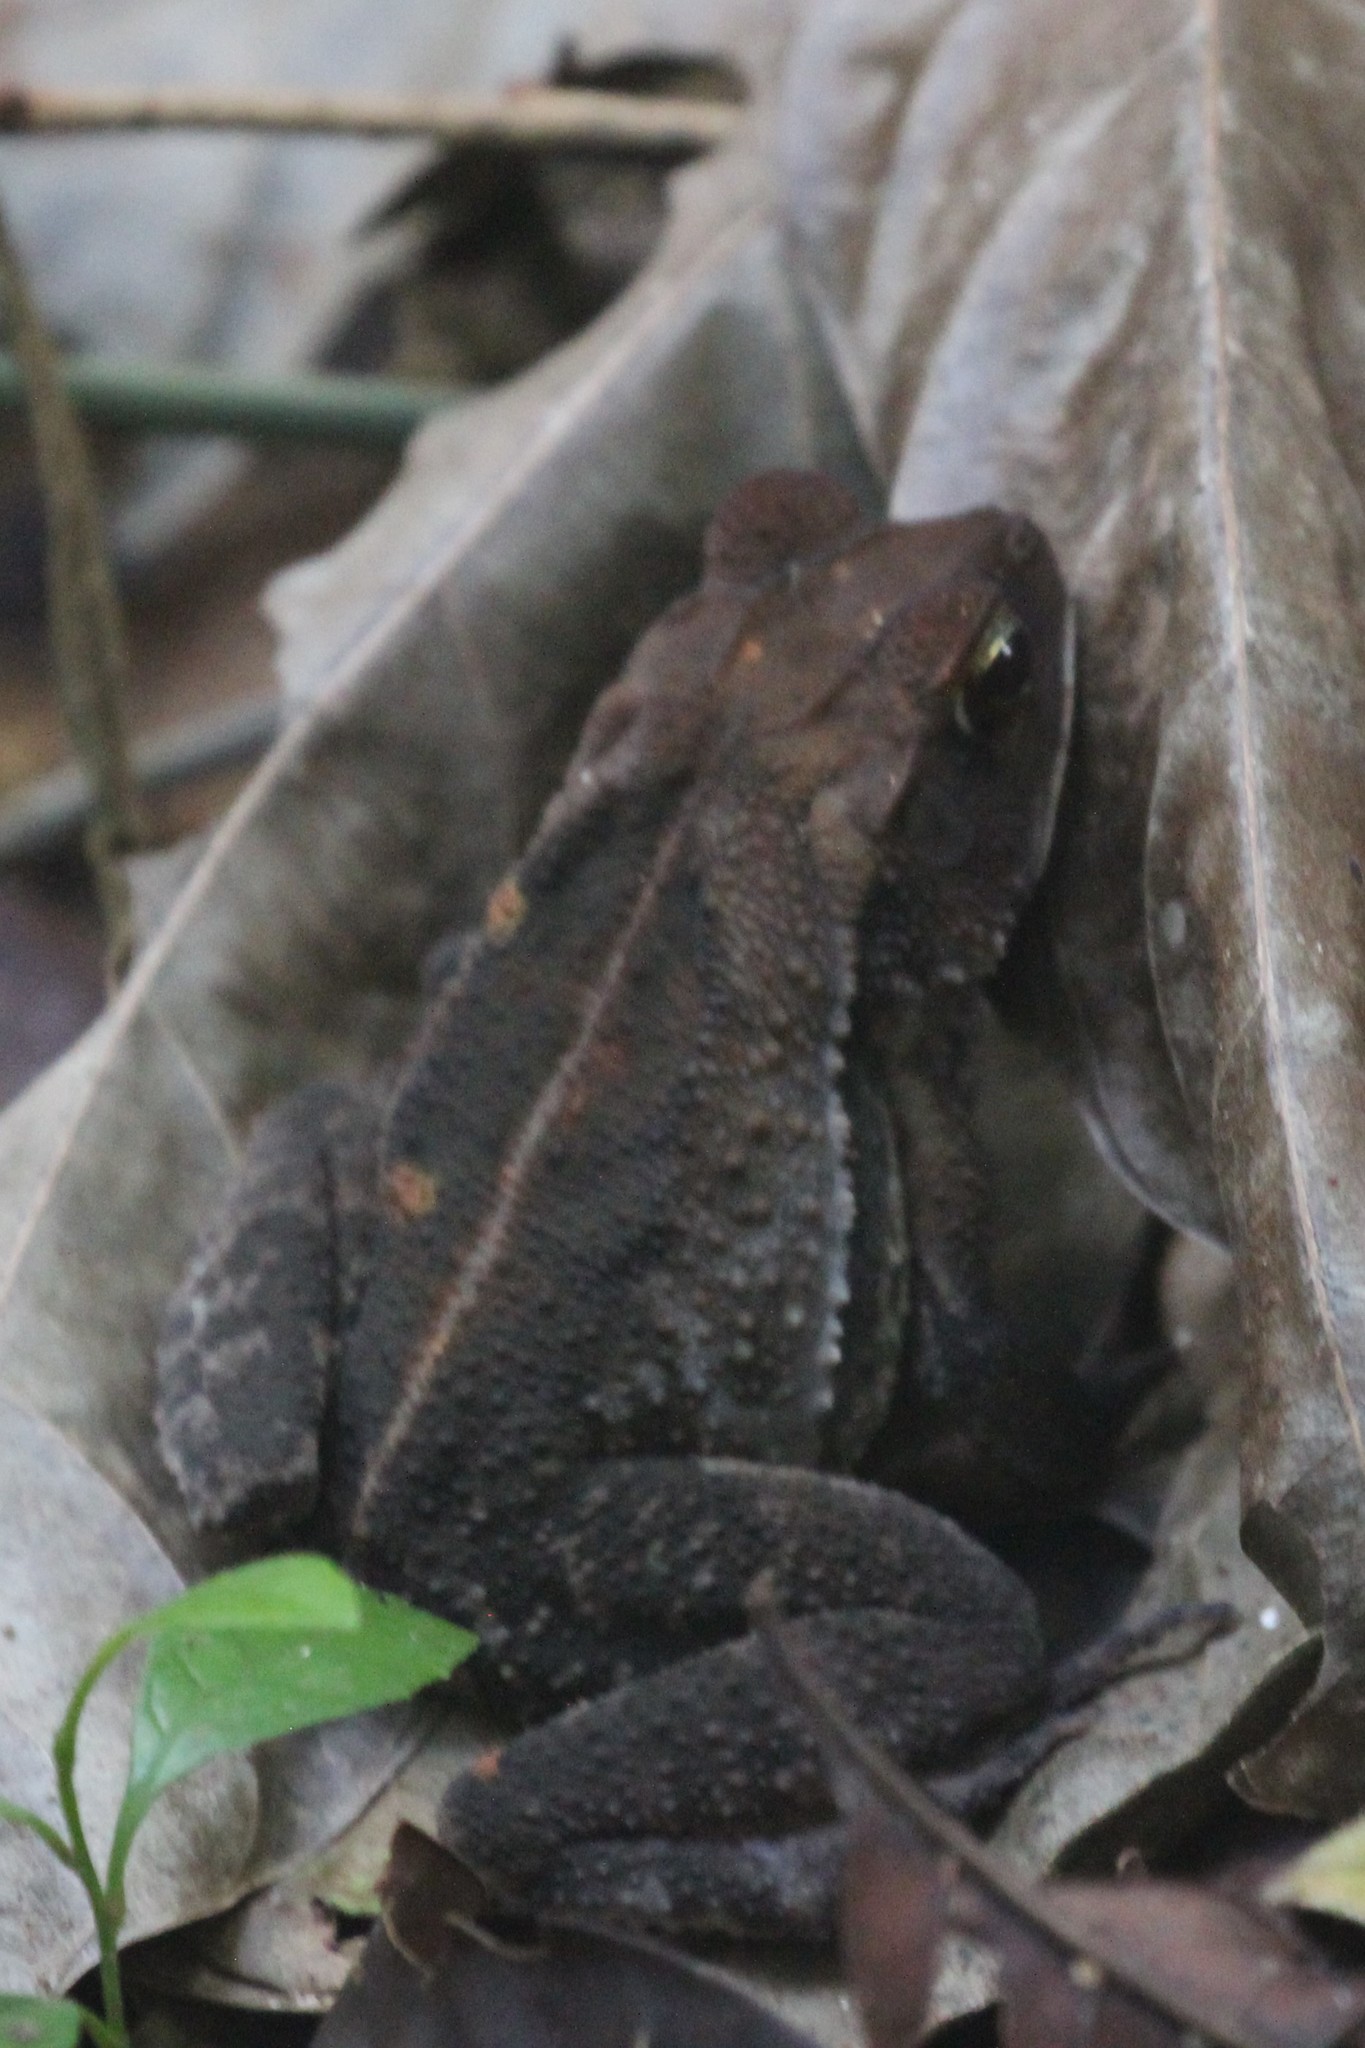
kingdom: Animalia
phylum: Chordata
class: Amphibia
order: Anura
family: Bufonidae
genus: Incilius
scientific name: Incilius aucoinae
